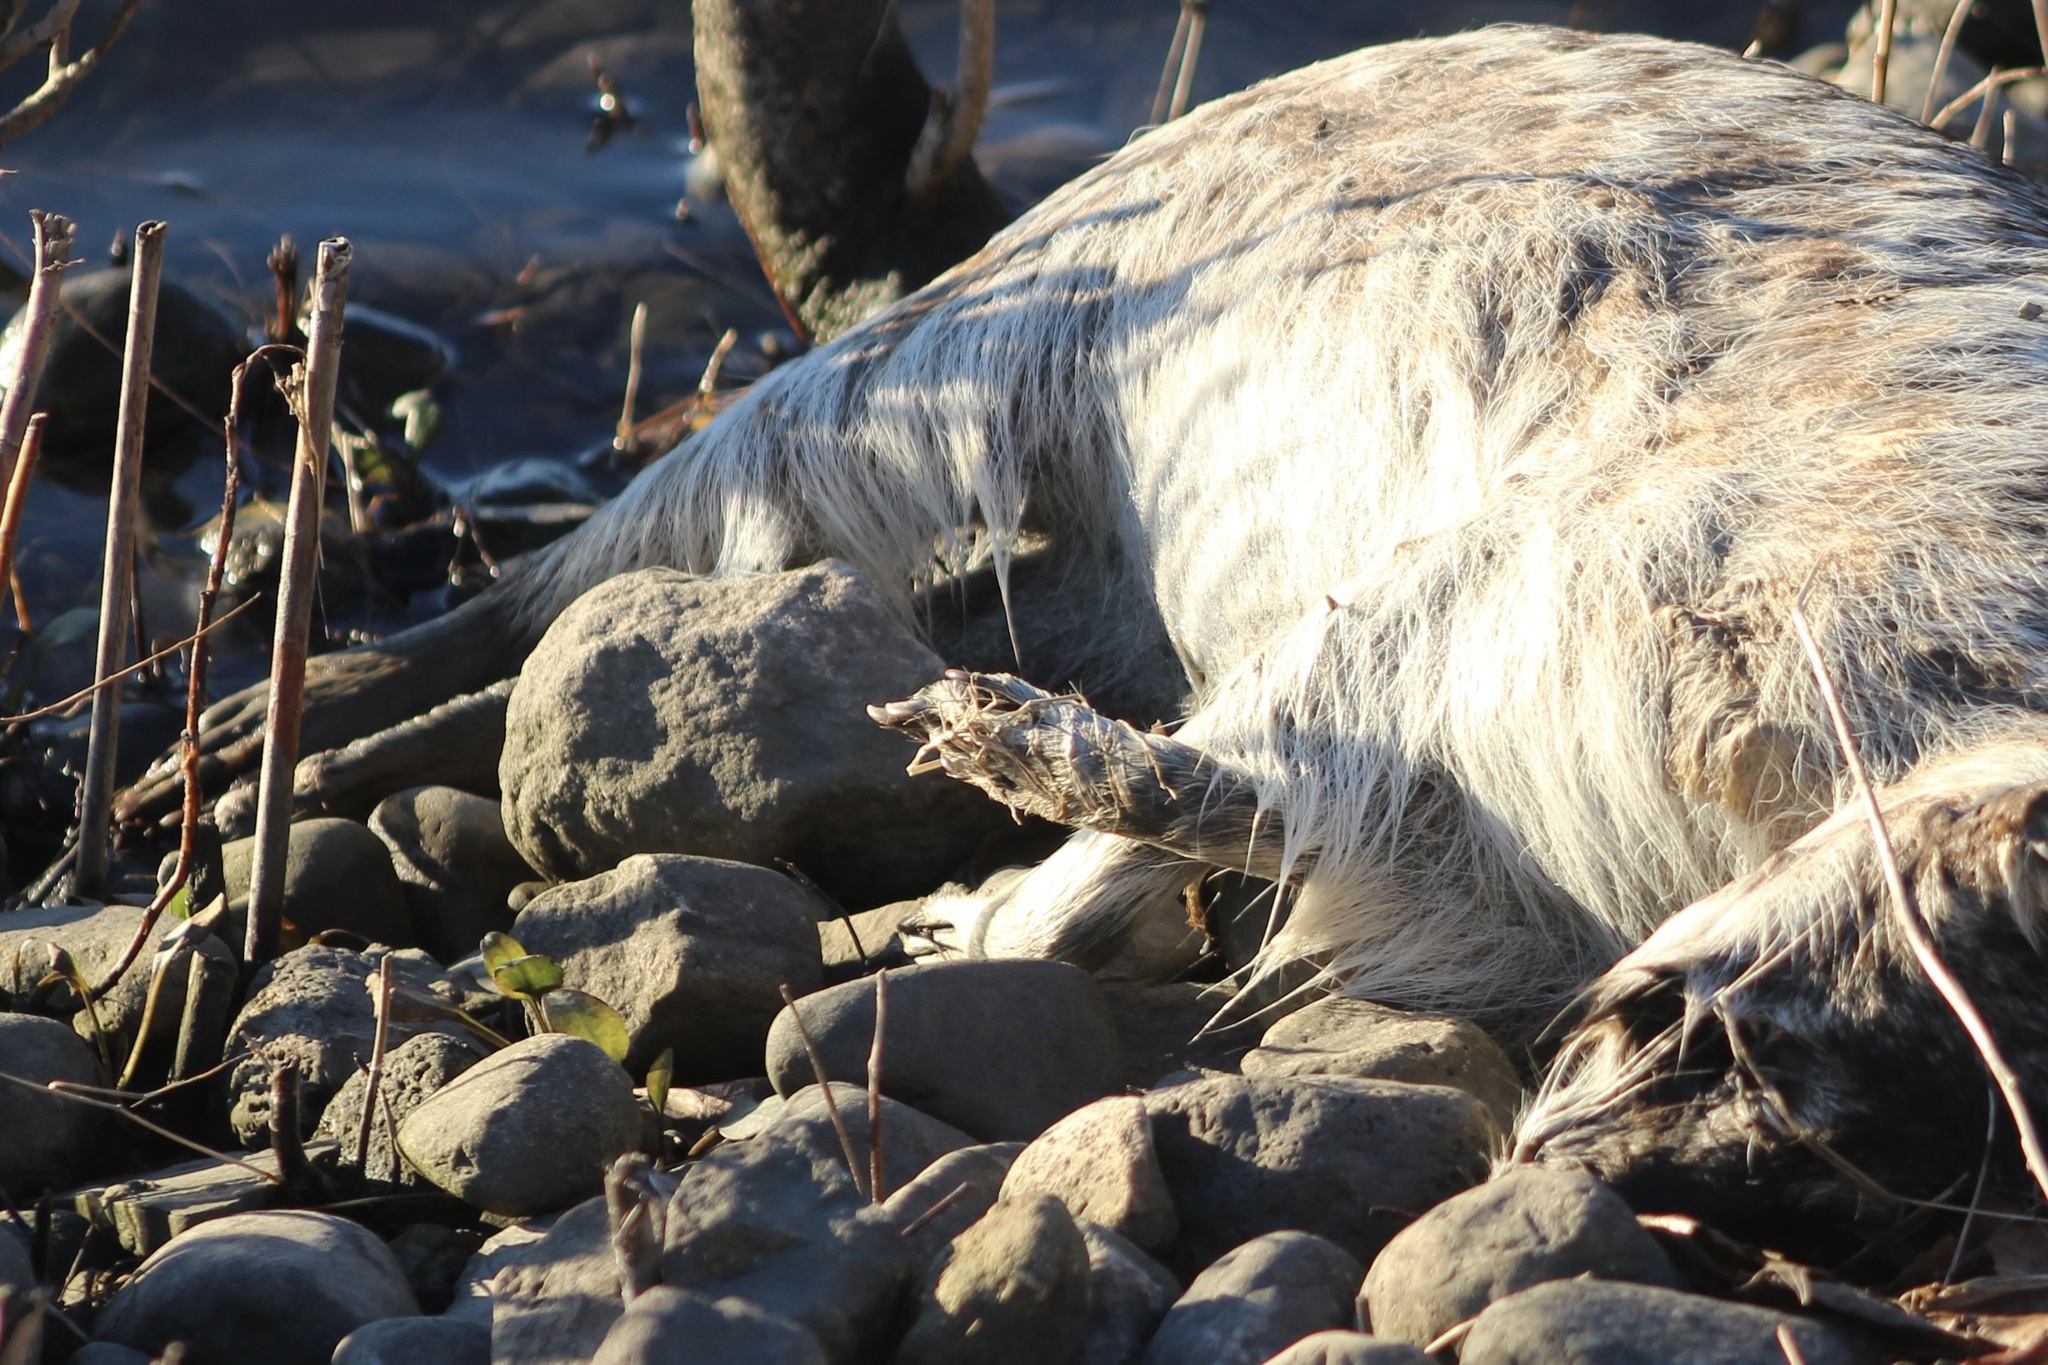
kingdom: Animalia
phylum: Chordata
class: Mammalia
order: Carnivora
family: Mustelidae
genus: Taxidea
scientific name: Taxidea taxus
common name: American badger
